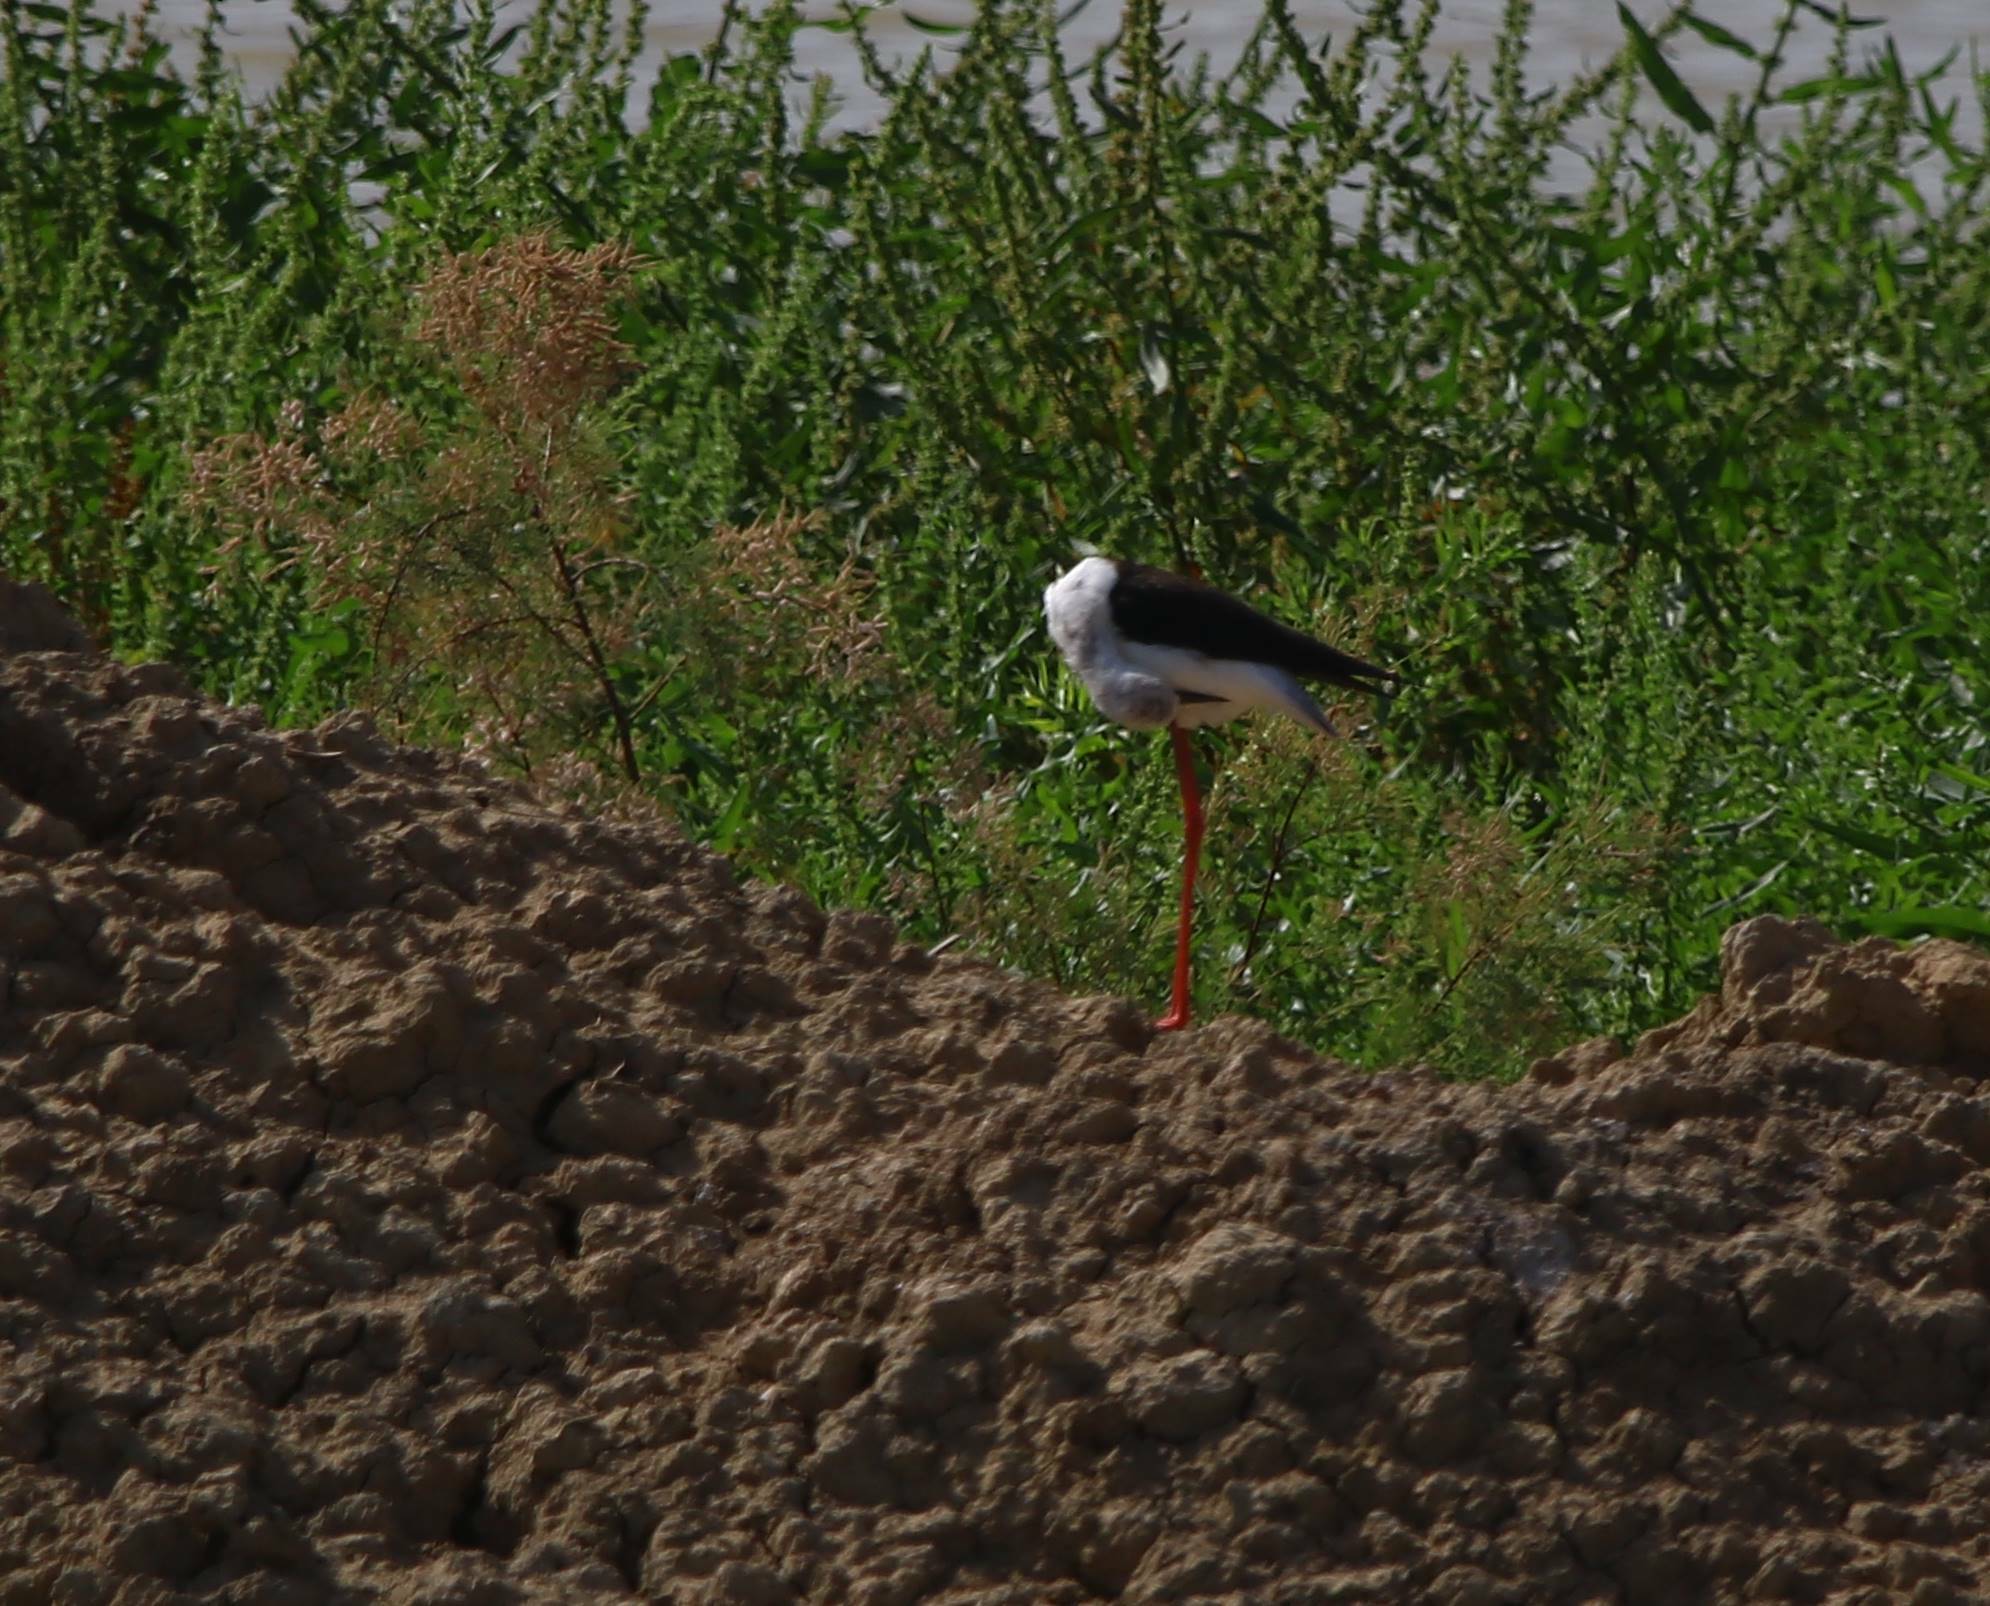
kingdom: Animalia
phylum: Chordata
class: Aves
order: Charadriiformes
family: Recurvirostridae
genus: Himantopus
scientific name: Himantopus himantopus
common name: Black-winged stilt
